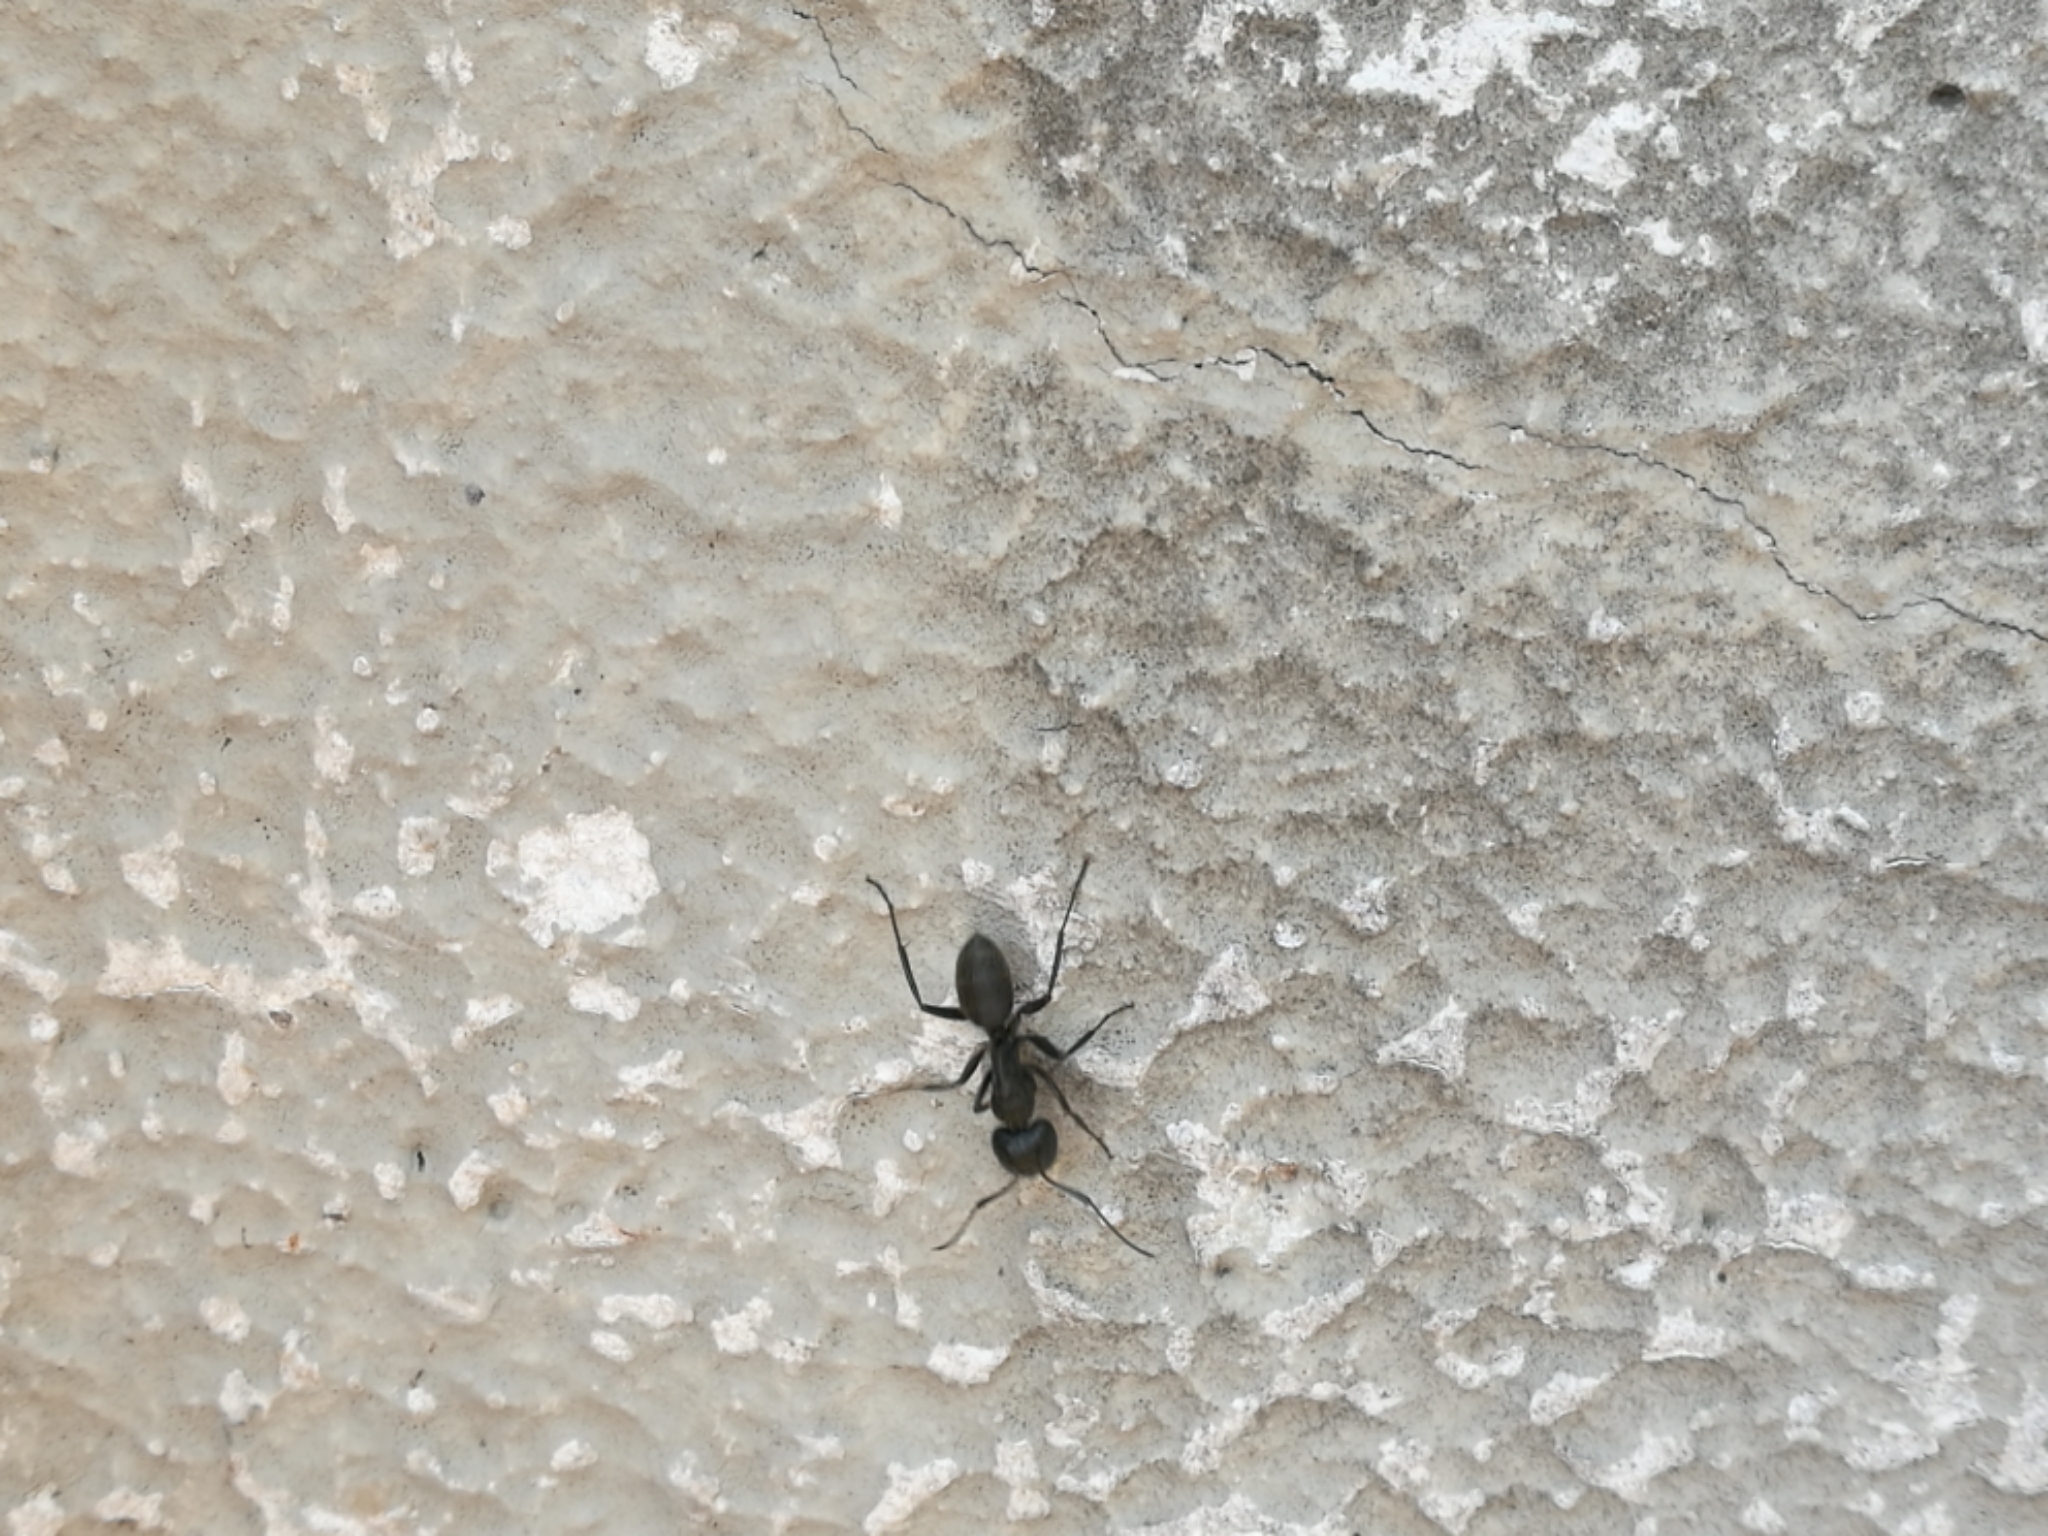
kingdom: Animalia
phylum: Arthropoda
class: Insecta
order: Hymenoptera
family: Formicidae
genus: Camponotus
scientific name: Camponotus vagus
